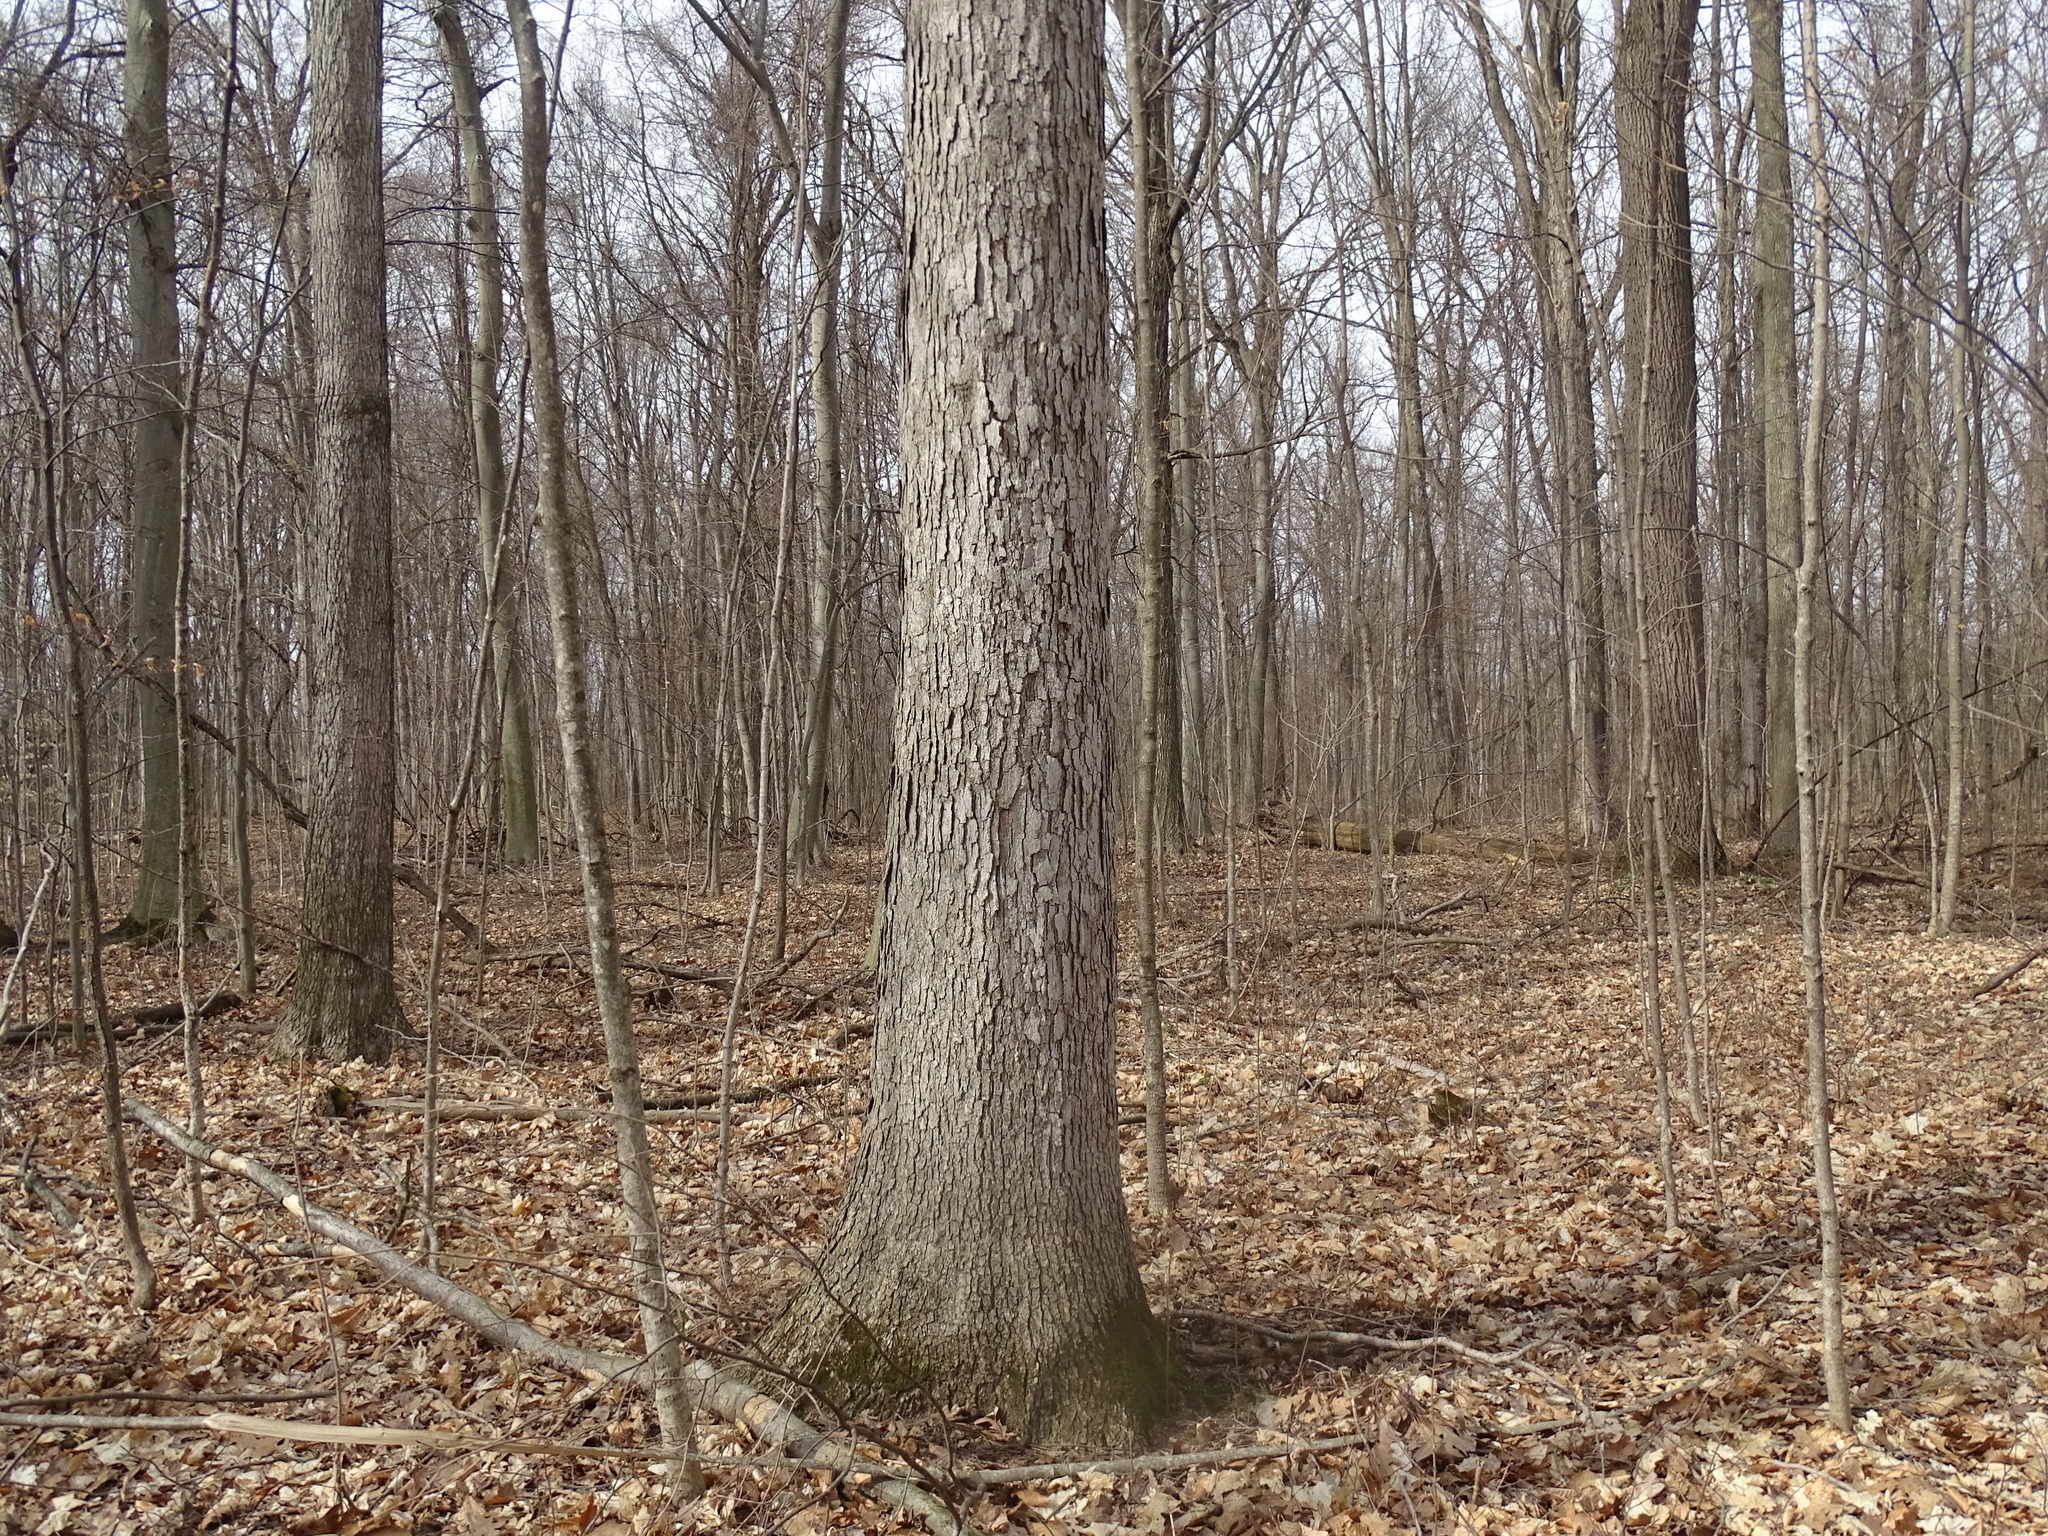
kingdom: Plantae
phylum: Tracheophyta
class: Magnoliopsida
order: Fagales
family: Fagaceae
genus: Quercus
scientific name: Quercus alba
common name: White oak
